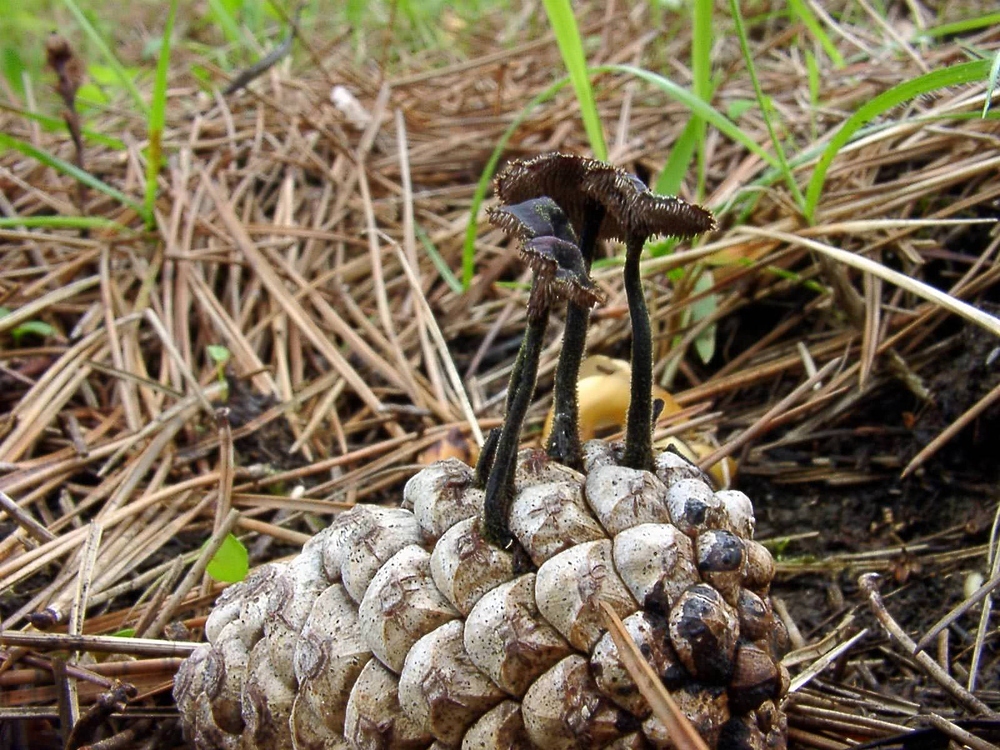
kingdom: Fungi
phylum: Basidiomycota
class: Agaricomycetes
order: Russulales
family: Auriscalpiaceae
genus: Auriscalpium
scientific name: Auriscalpium vulgare
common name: Earpick fungus
